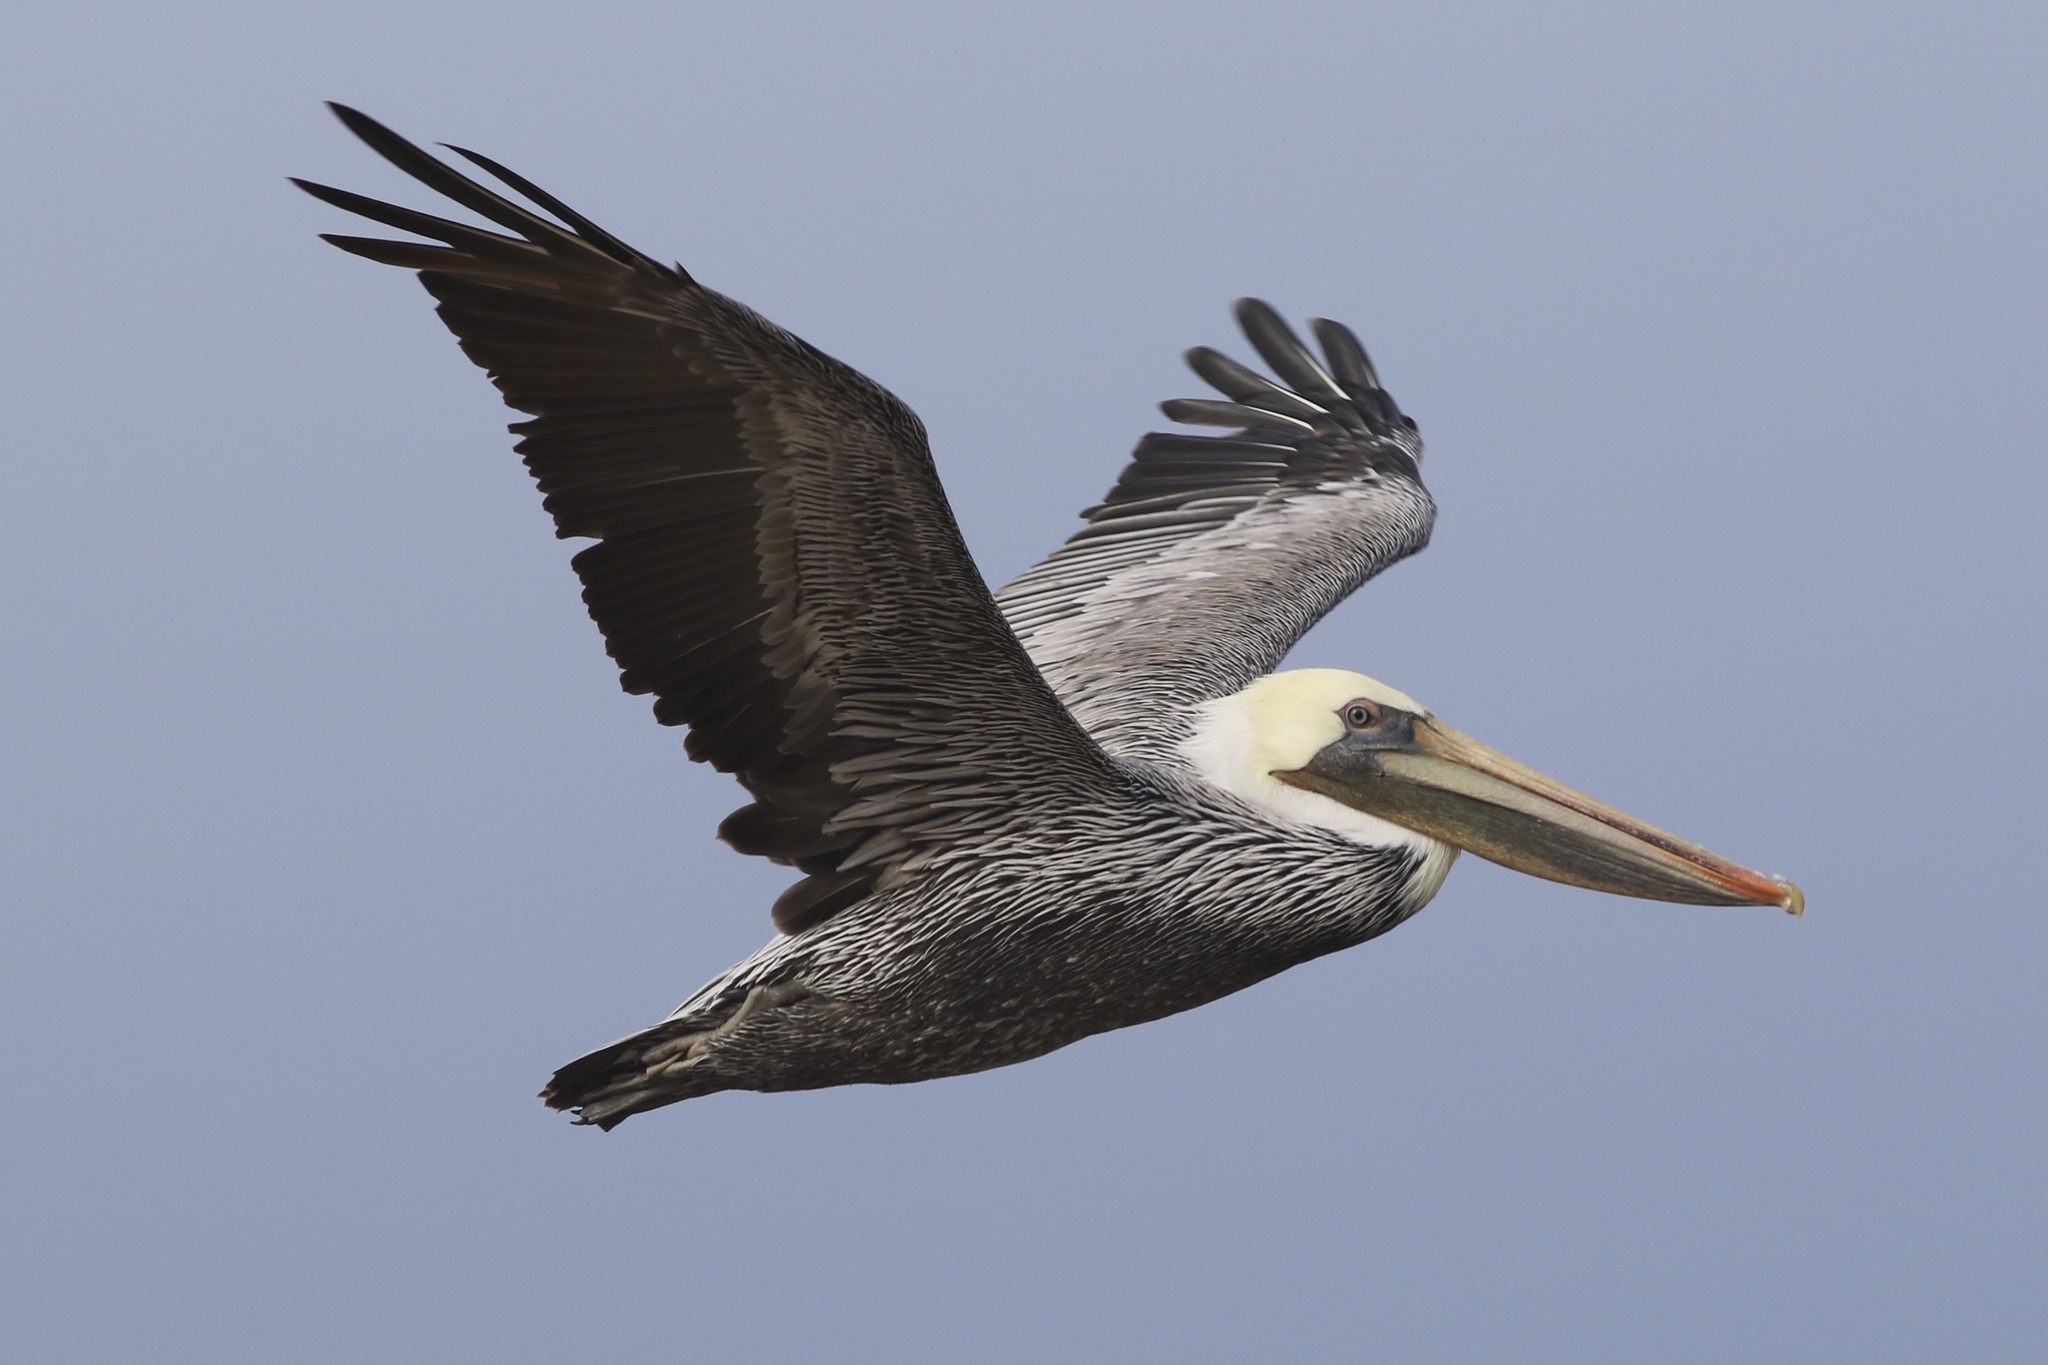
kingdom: Animalia
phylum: Chordata
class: Aves
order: Pelecaniformes
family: Pelecanidae
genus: Pelecanus
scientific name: Pelecanus occidentalis
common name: Brown pelican
